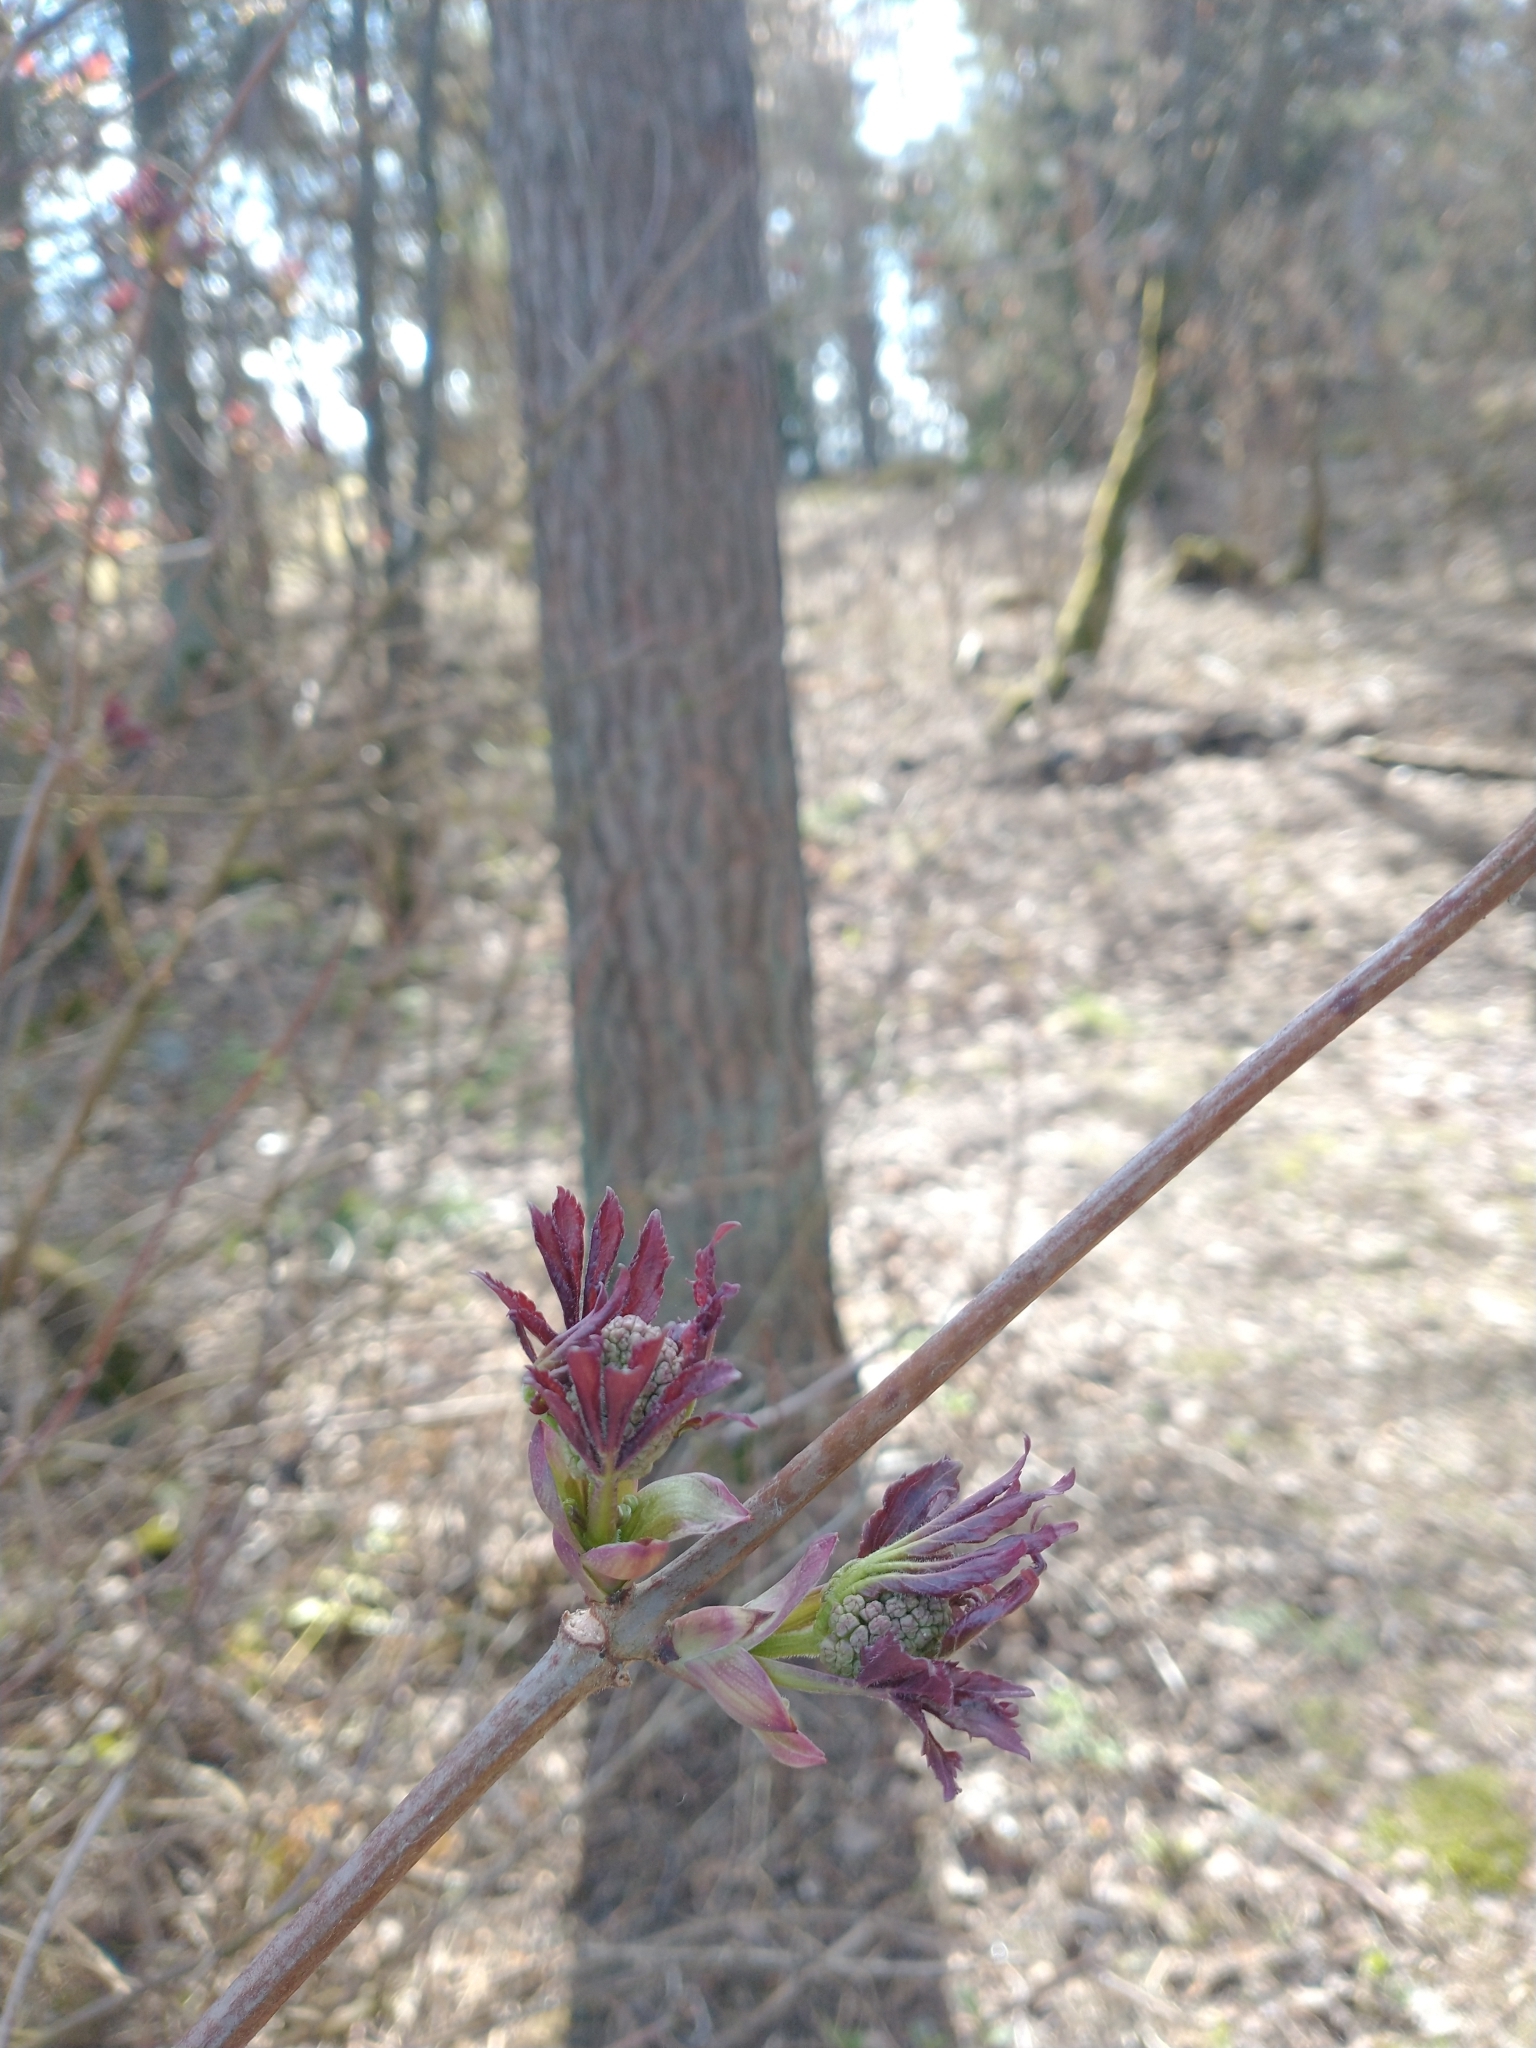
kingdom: Plantae
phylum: Tracheophyta
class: Magnoliopsida
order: Dipsacales
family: Viburnaceae
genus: Sambucus
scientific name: Sambucus racemosa
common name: Red-berried elder
